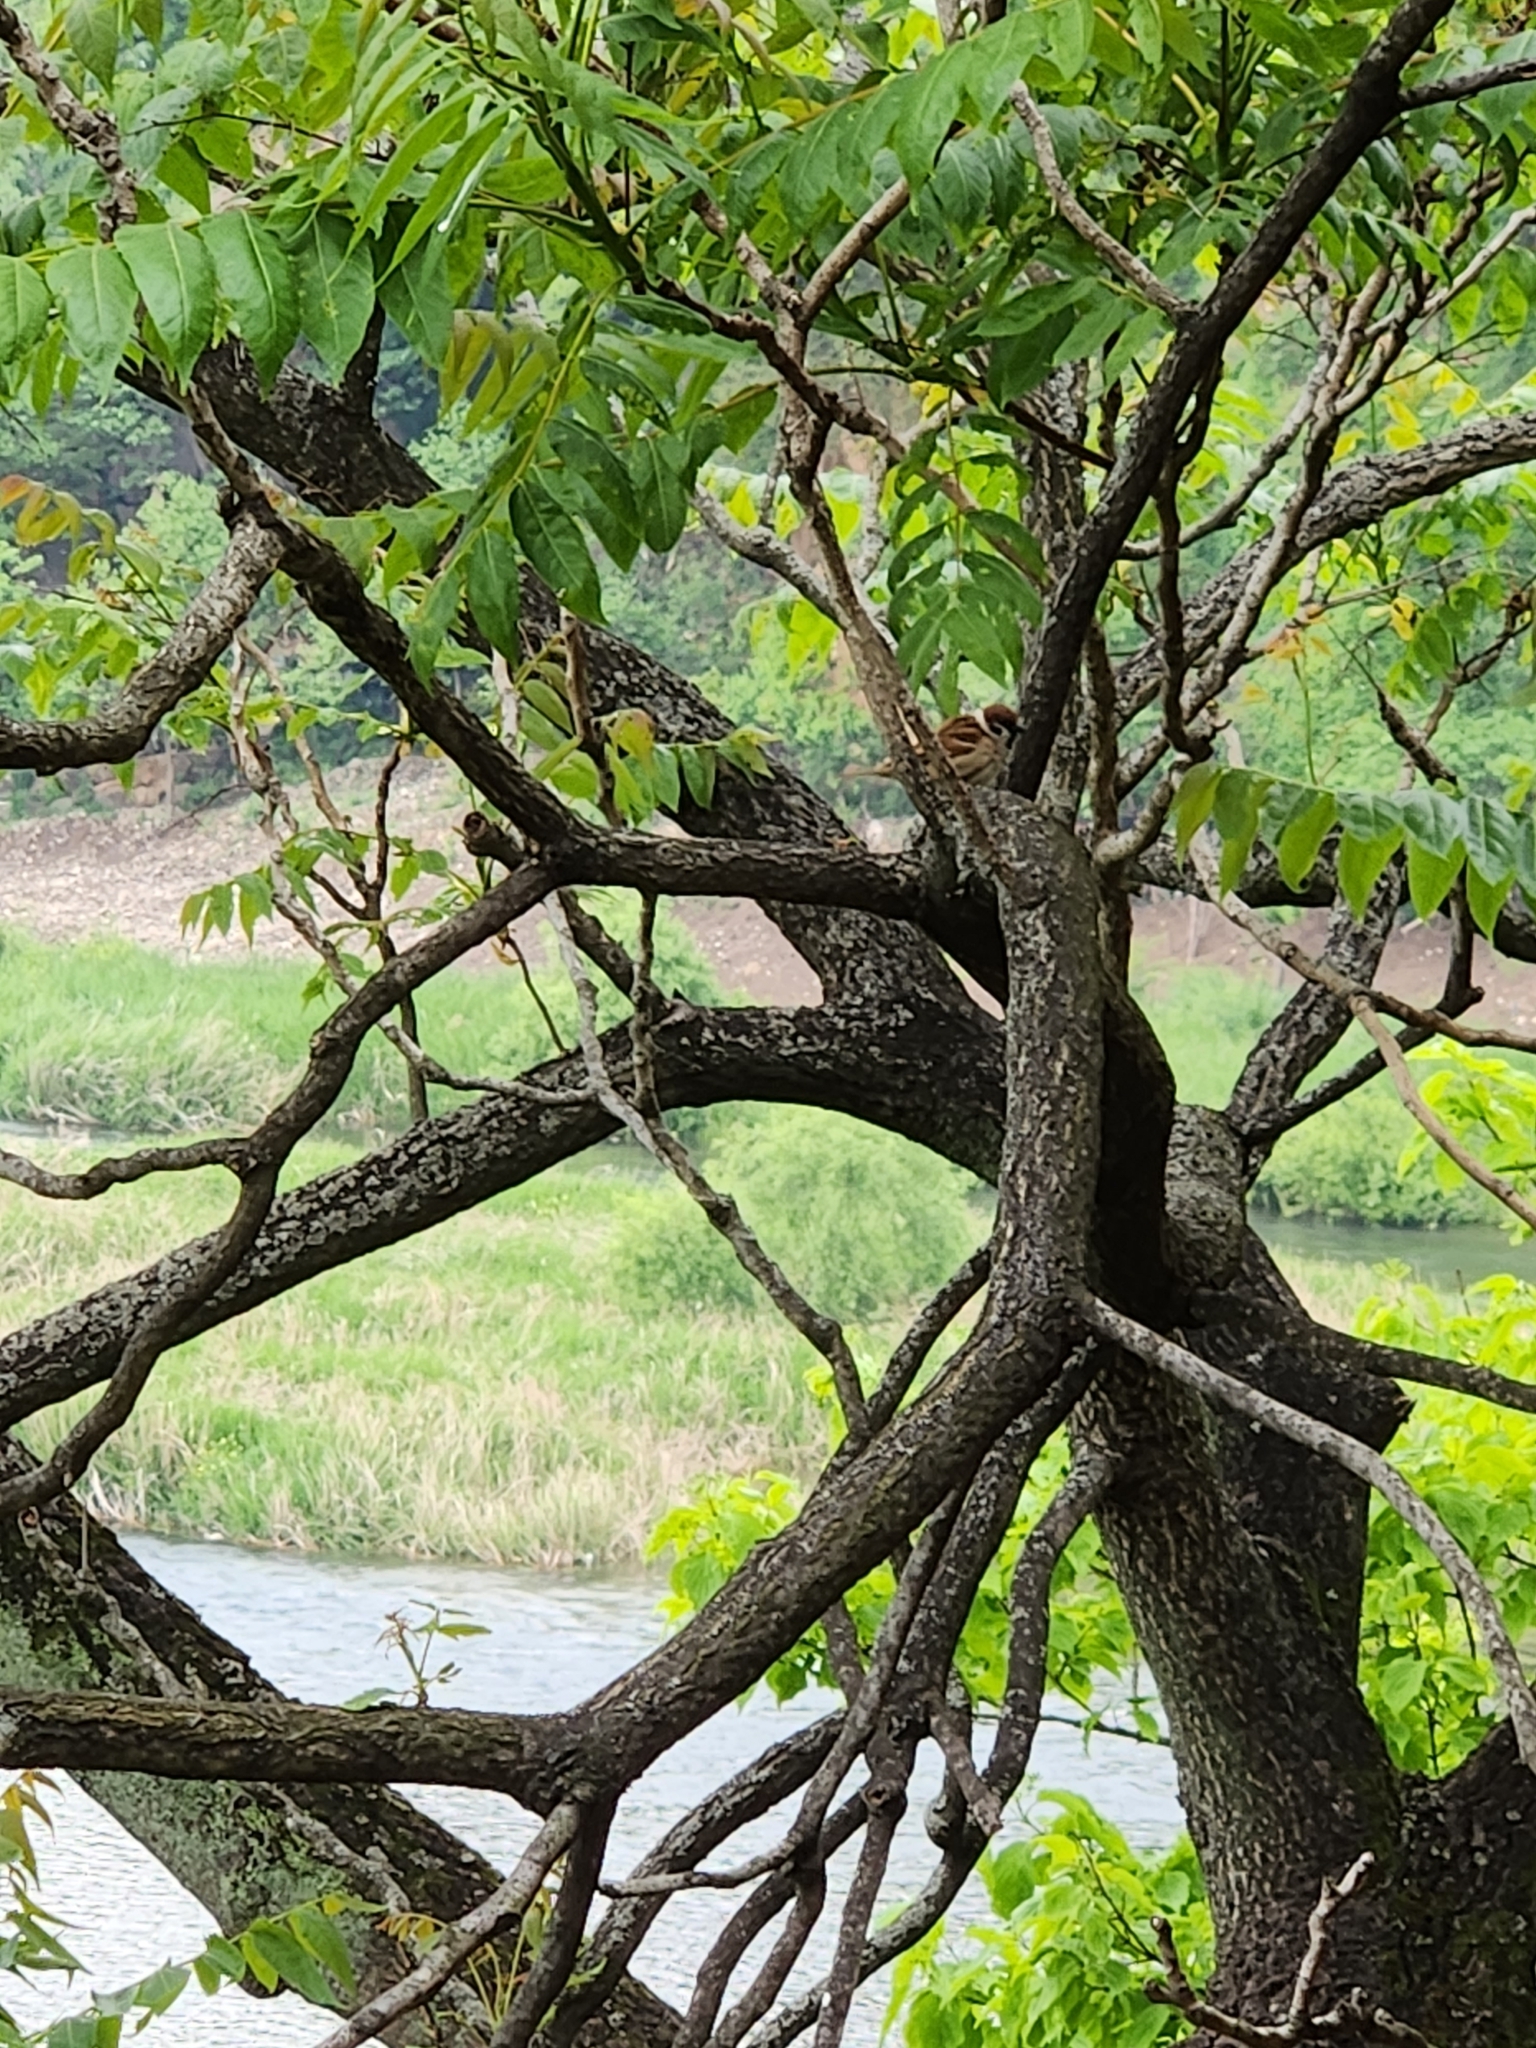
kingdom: Animalia
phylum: Chordata
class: Aves
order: Passeriformes
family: Passeridae
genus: Passer
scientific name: Passer montanus
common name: Eurasian tree sparrow
